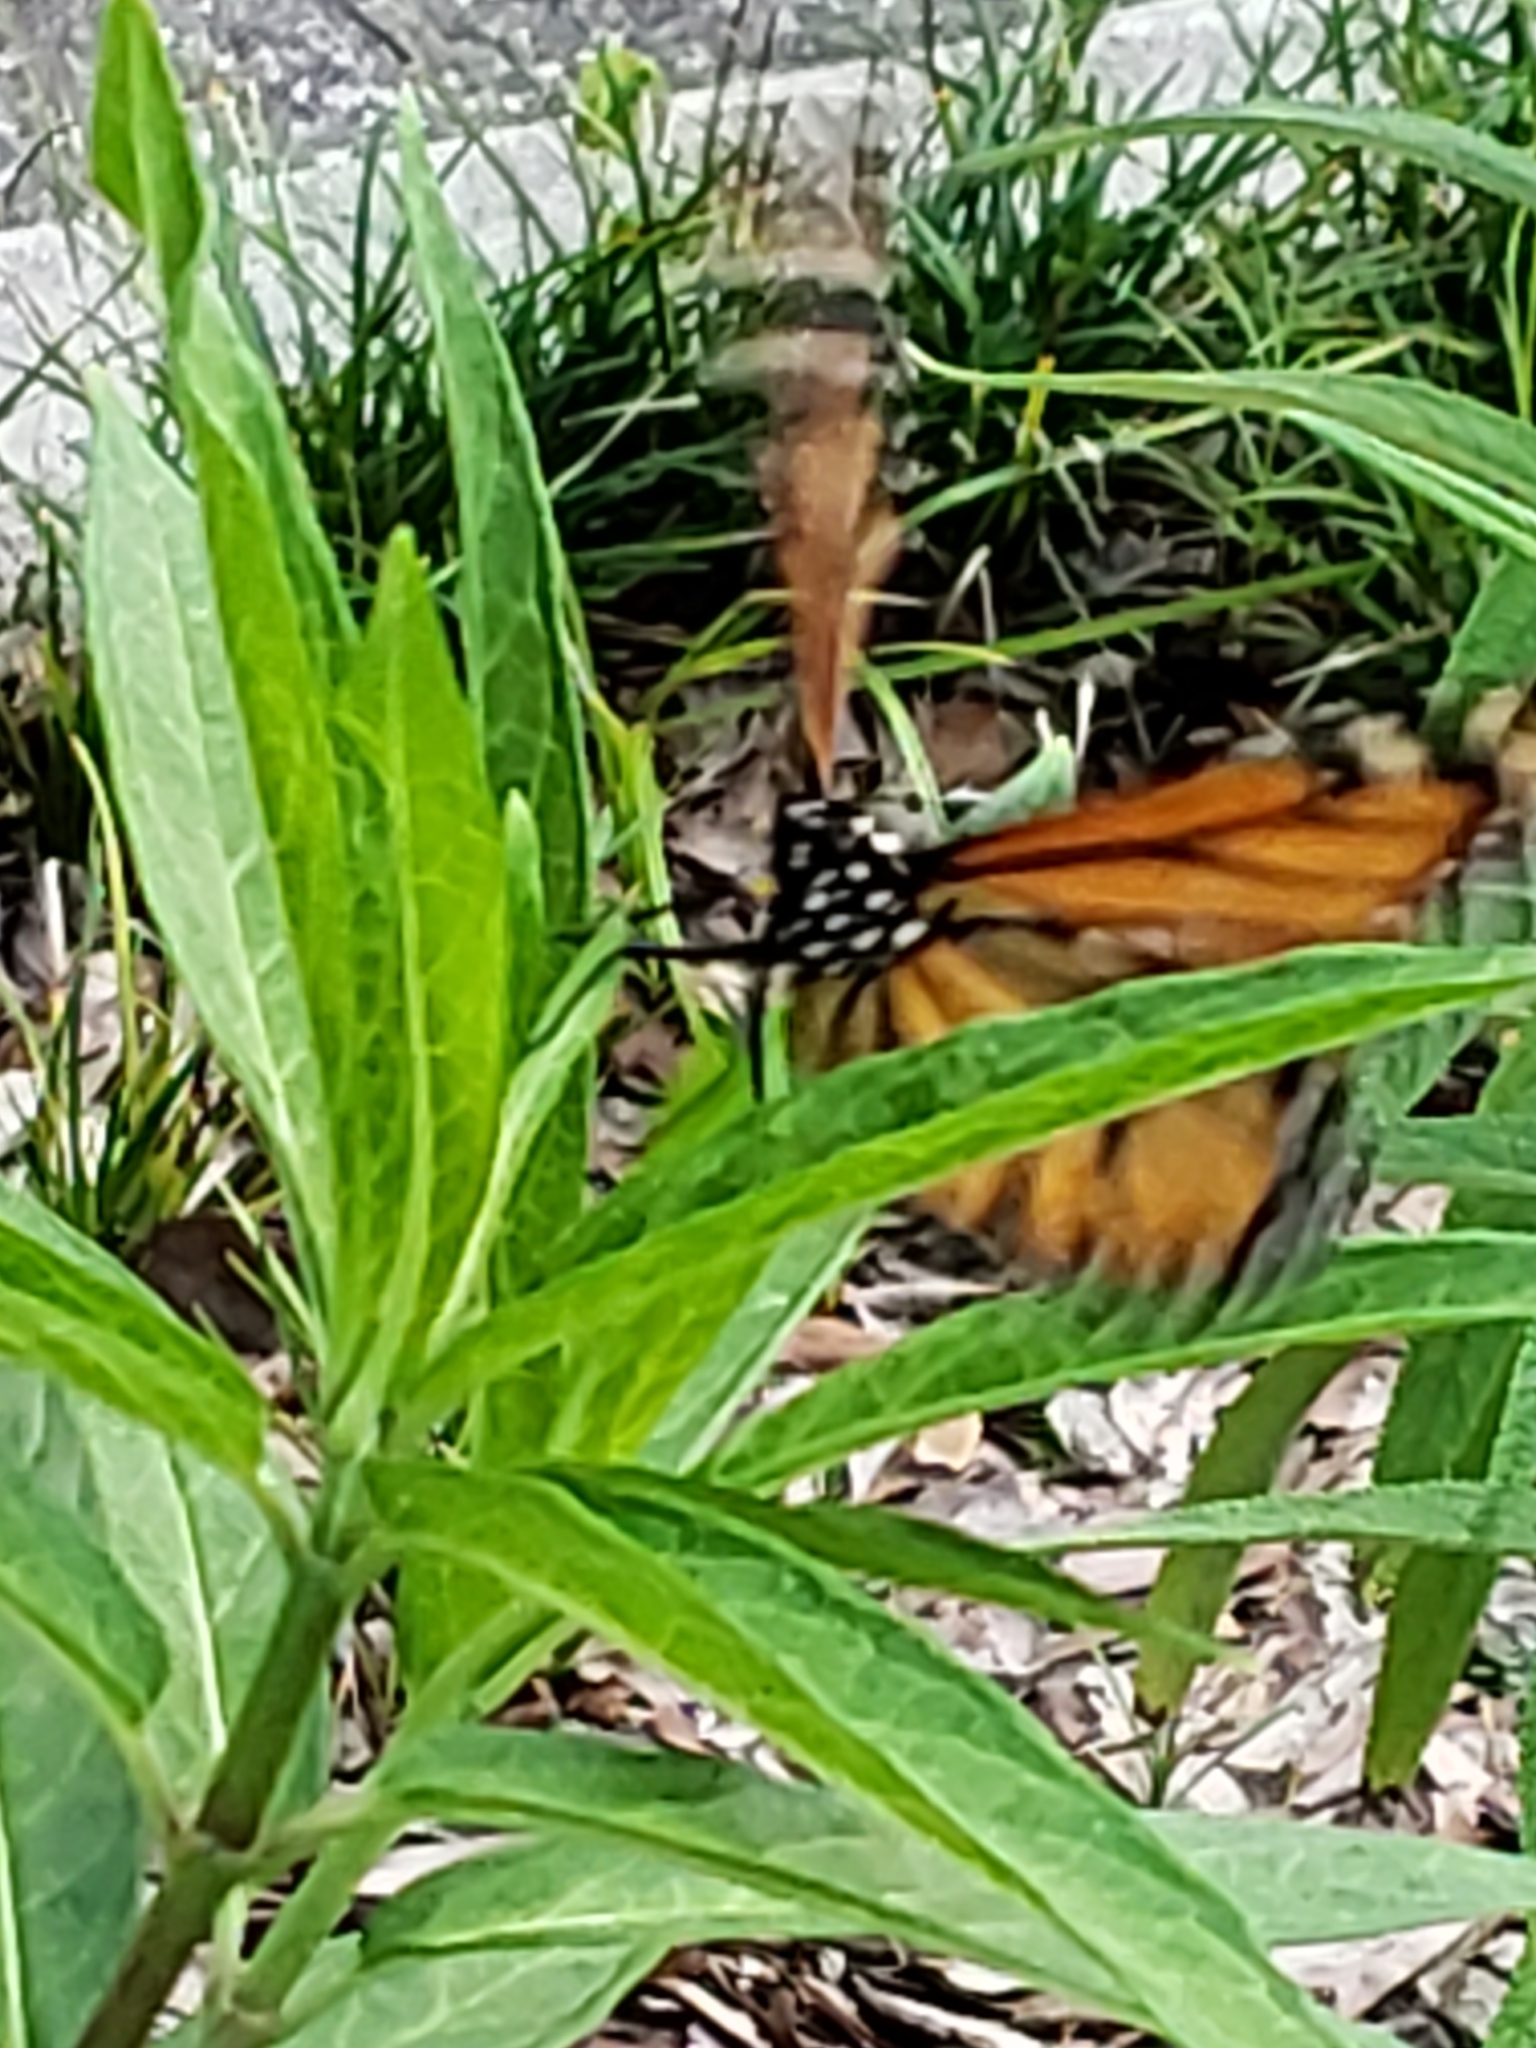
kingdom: Animalia
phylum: Arthropoda
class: Insecta
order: Lepidoptera
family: Nymphalidae
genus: Danaus
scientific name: Danaus plexippus
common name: Monarch
